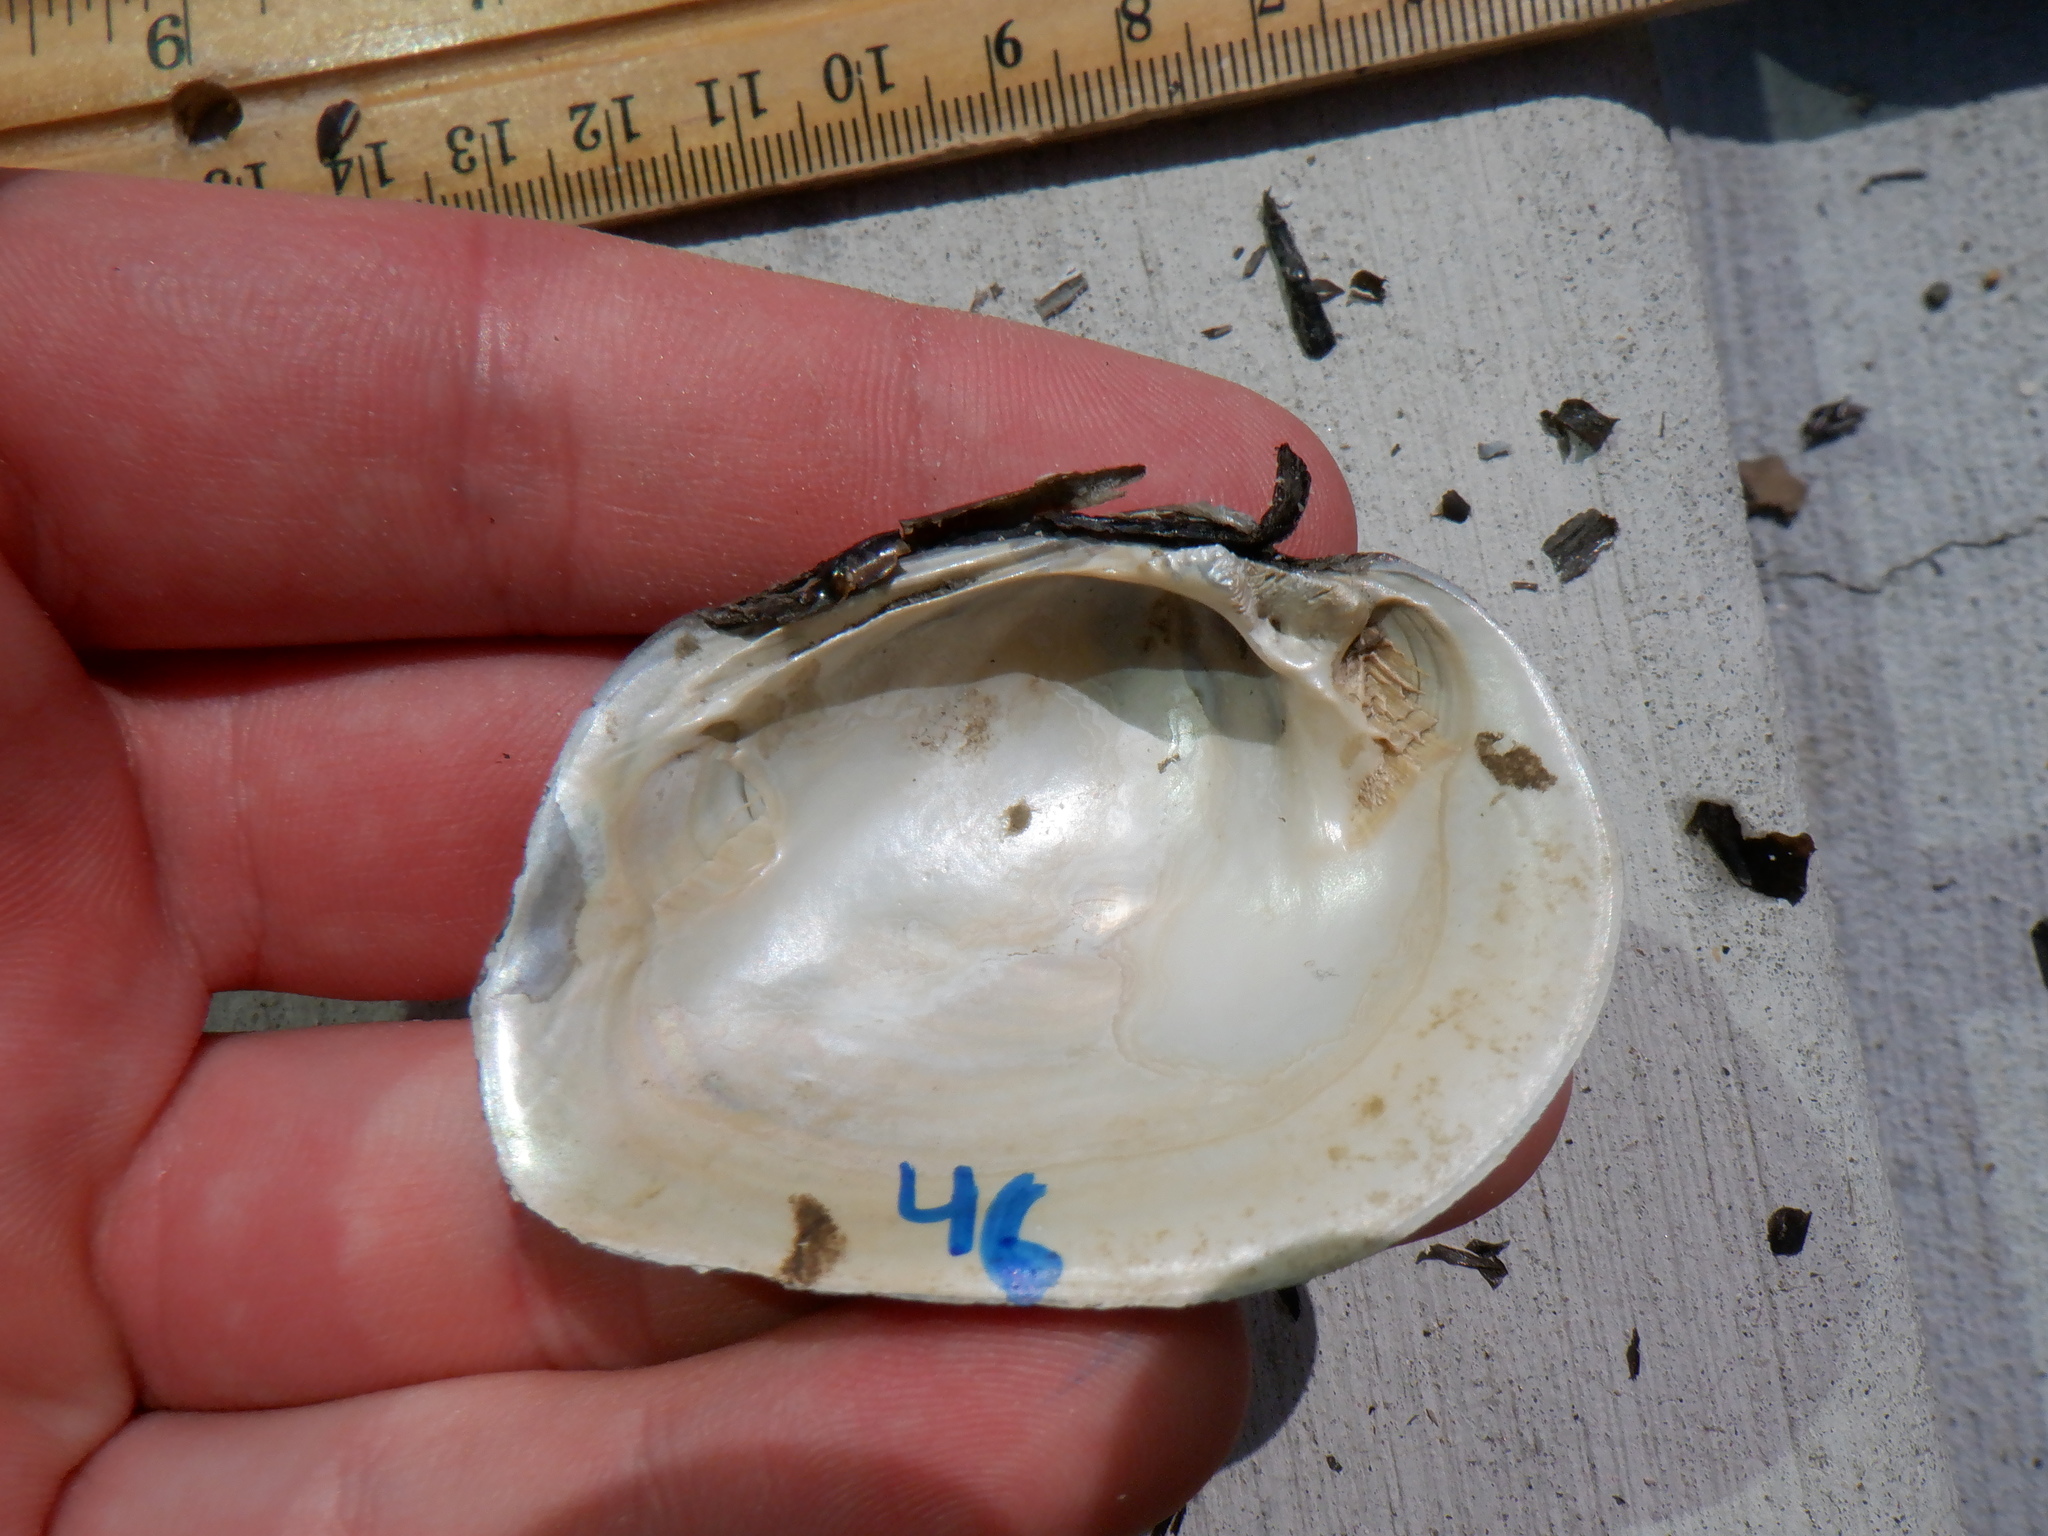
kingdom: Animalia
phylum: Mollusca
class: Bivalvia
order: Unionida
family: Unionidae
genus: Fusconaia
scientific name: Fusconaia flava
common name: Wabash pigtoe
